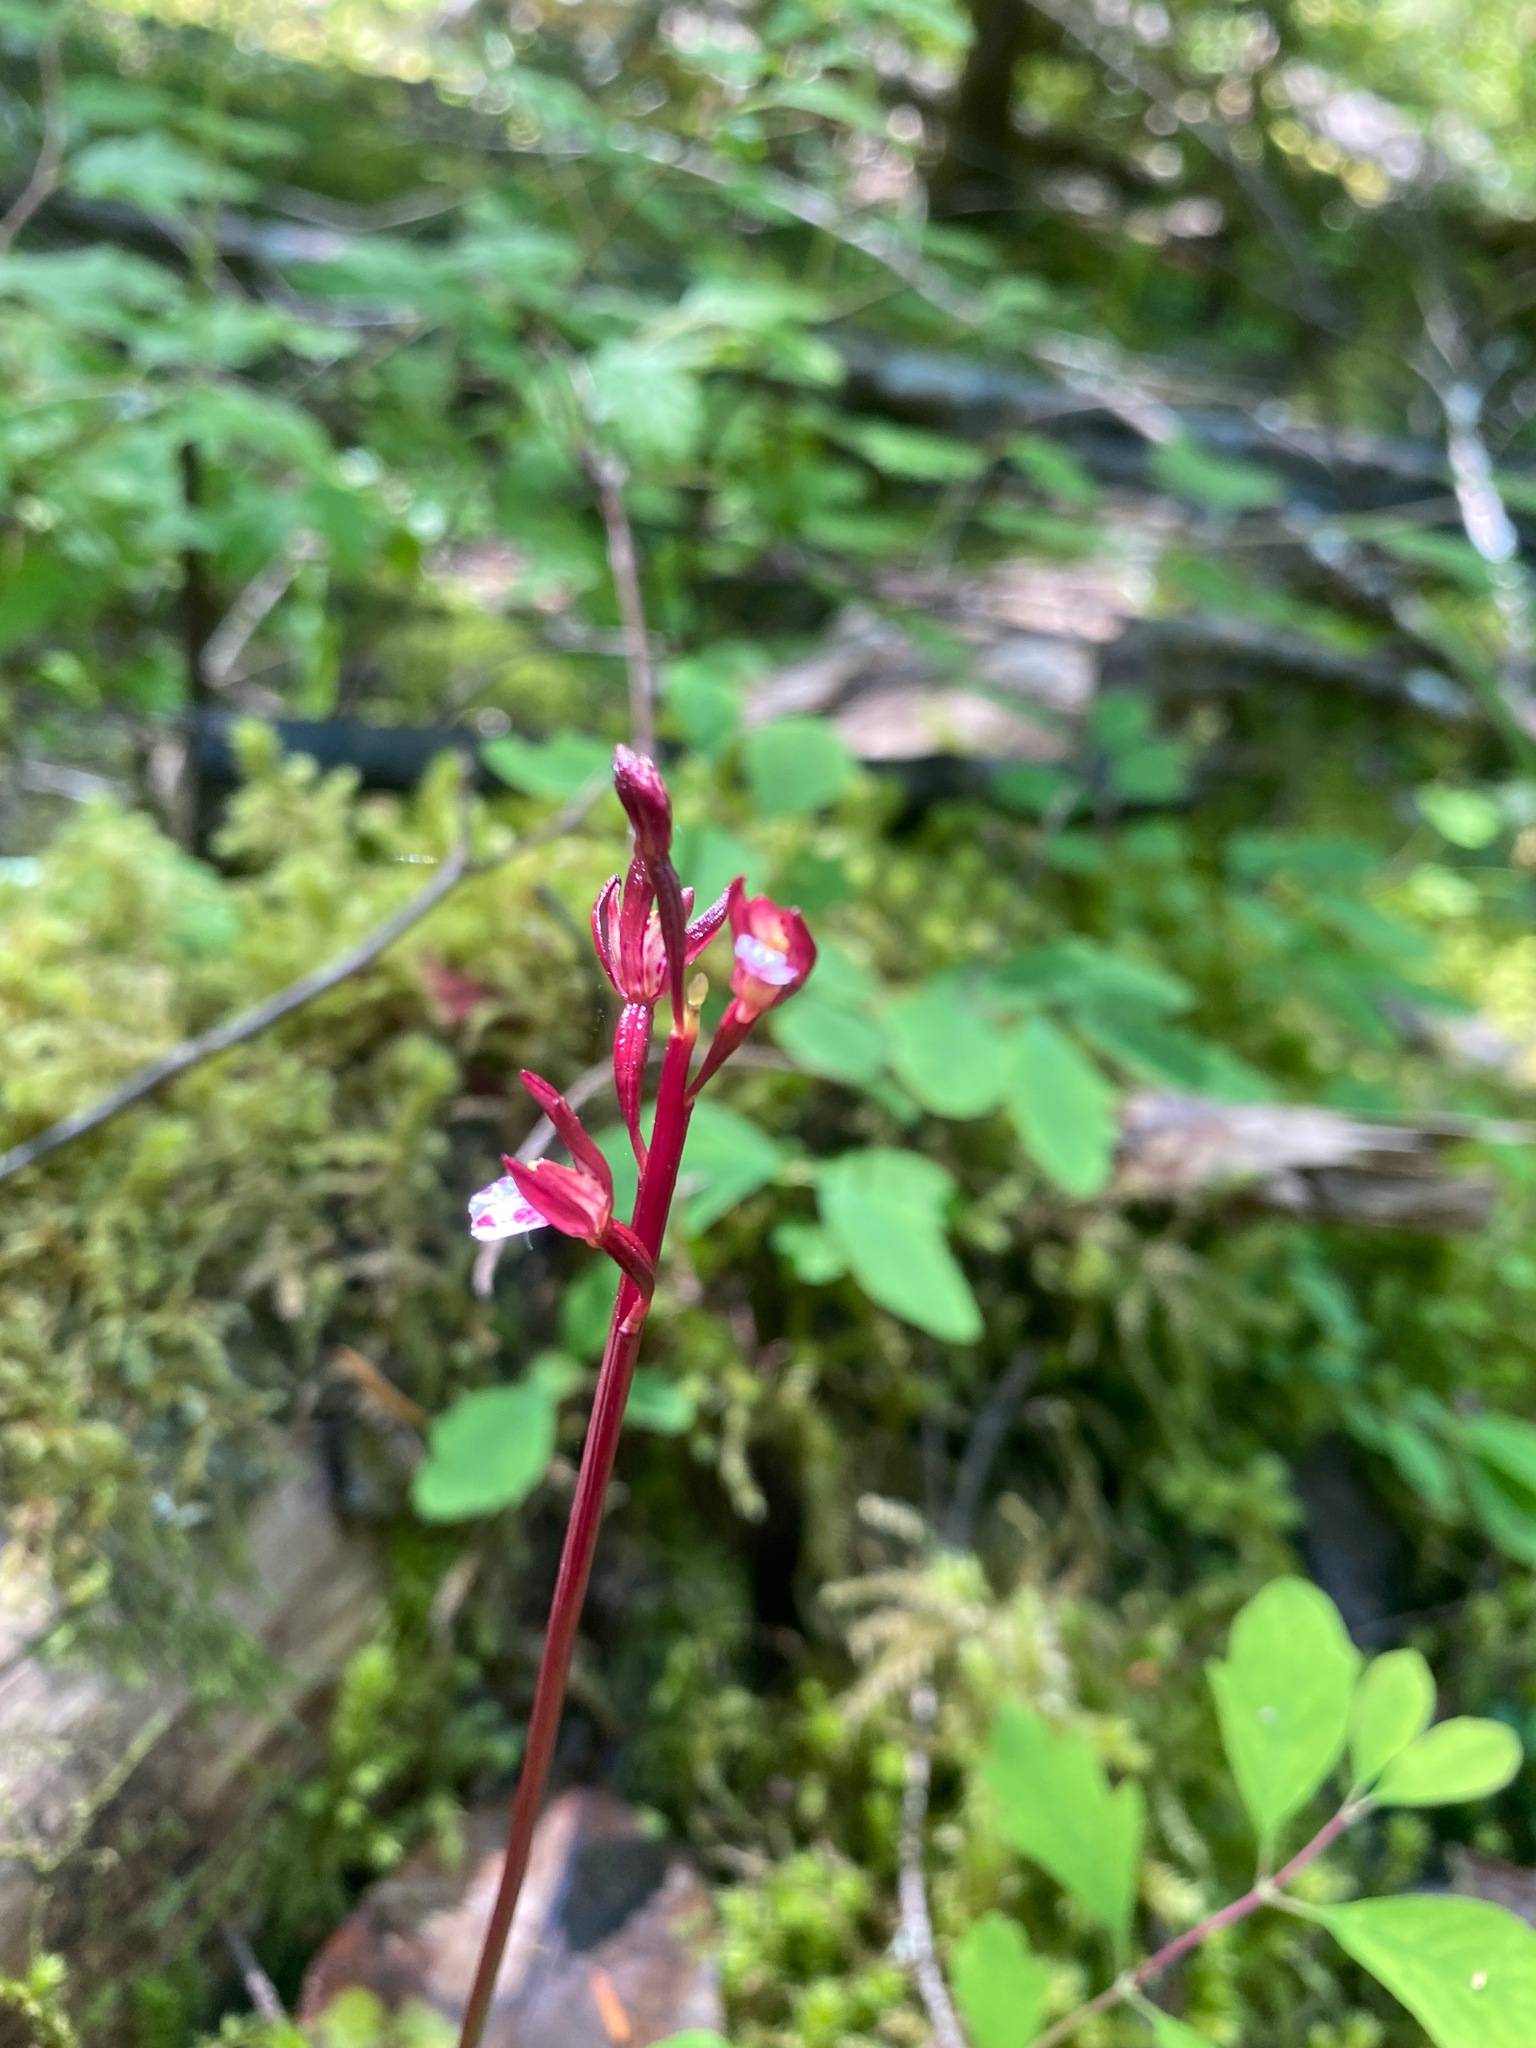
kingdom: Plantae
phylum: Tracheophyta
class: Liliopsida
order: Asparagales
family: Orchidaceae
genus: Corallorhiza
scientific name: Corallorhiza maculata
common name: Spotted coralroot
